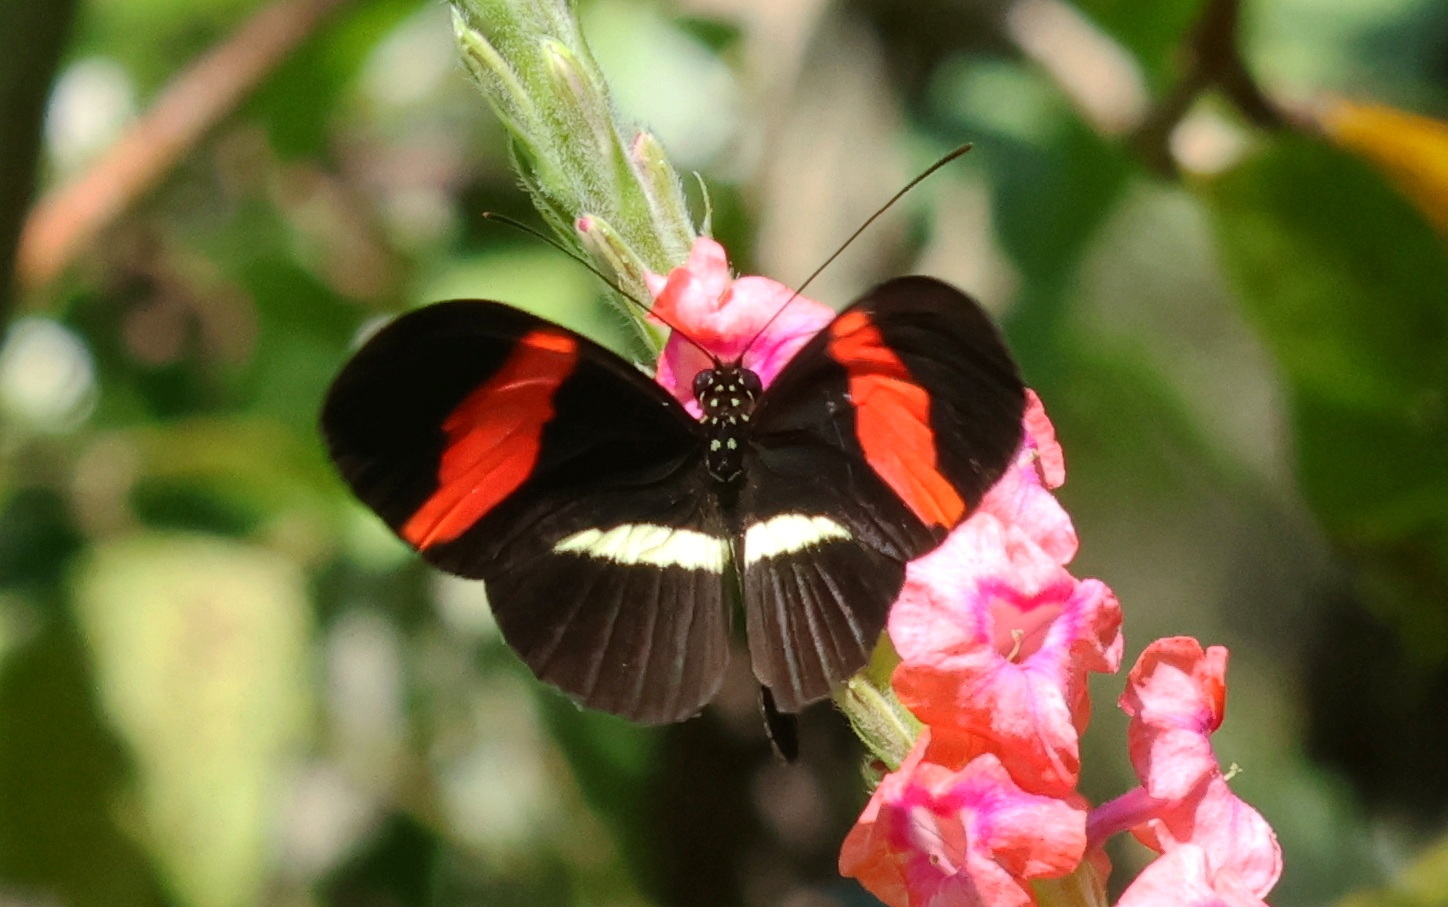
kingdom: Animalia
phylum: Arthropoda
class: Insecta
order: Lepidoptera
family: Nymphalidae
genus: Tirumala
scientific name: Tirumala petiverana
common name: Blue monarch
